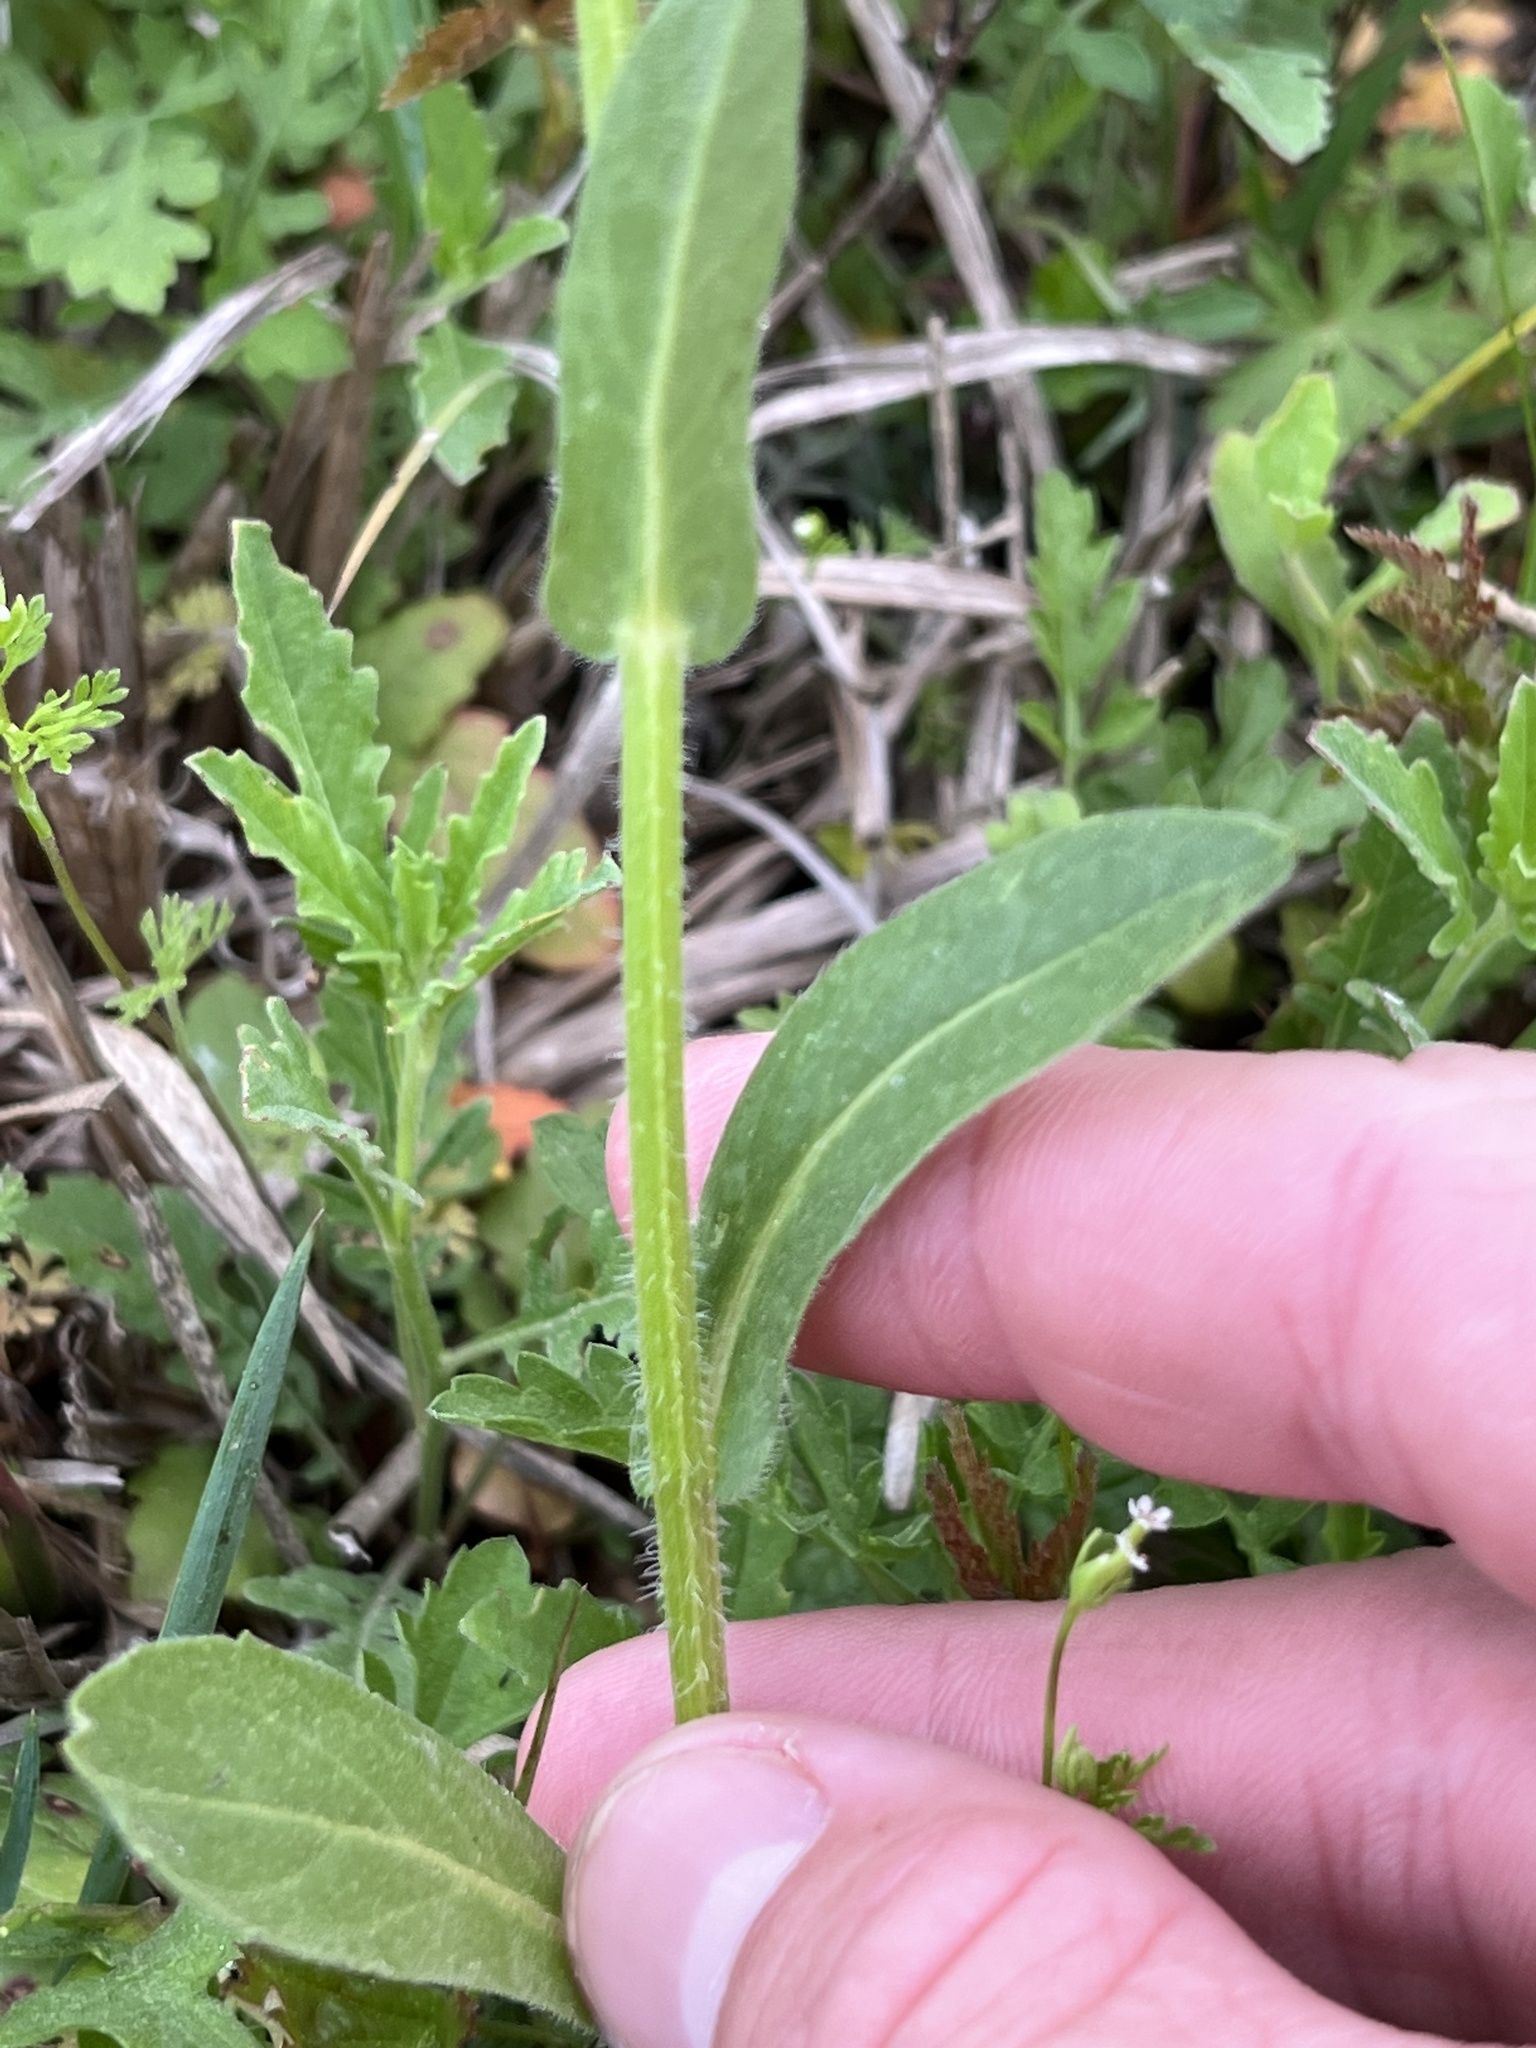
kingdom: Plantae
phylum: Tracheophyta
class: Magnoliopsida
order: Asterales
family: Asteraceae
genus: Erigeron
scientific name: Erigeron philadelphicus
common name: Robin's-plantain
